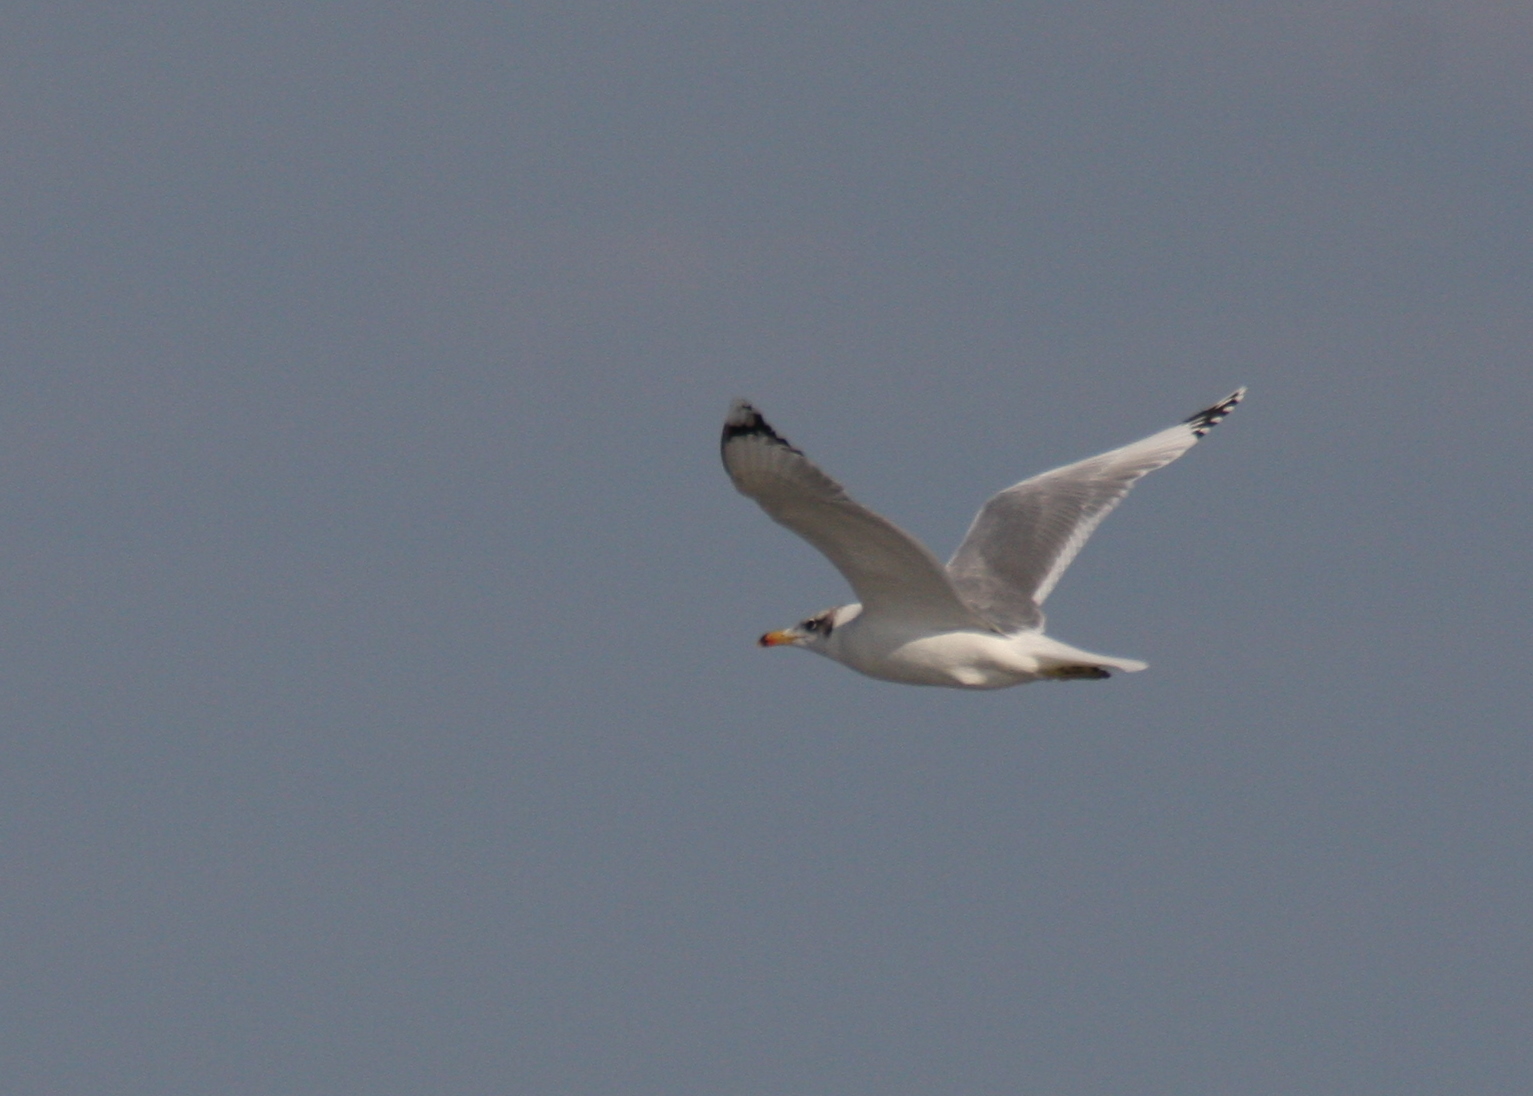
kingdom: Animalia
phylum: Chordata
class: Aves
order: Charadriiformes
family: Laridae
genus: Ichthyaetus
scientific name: Ichthyaetus ichthyaetus
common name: Pallas's gull
